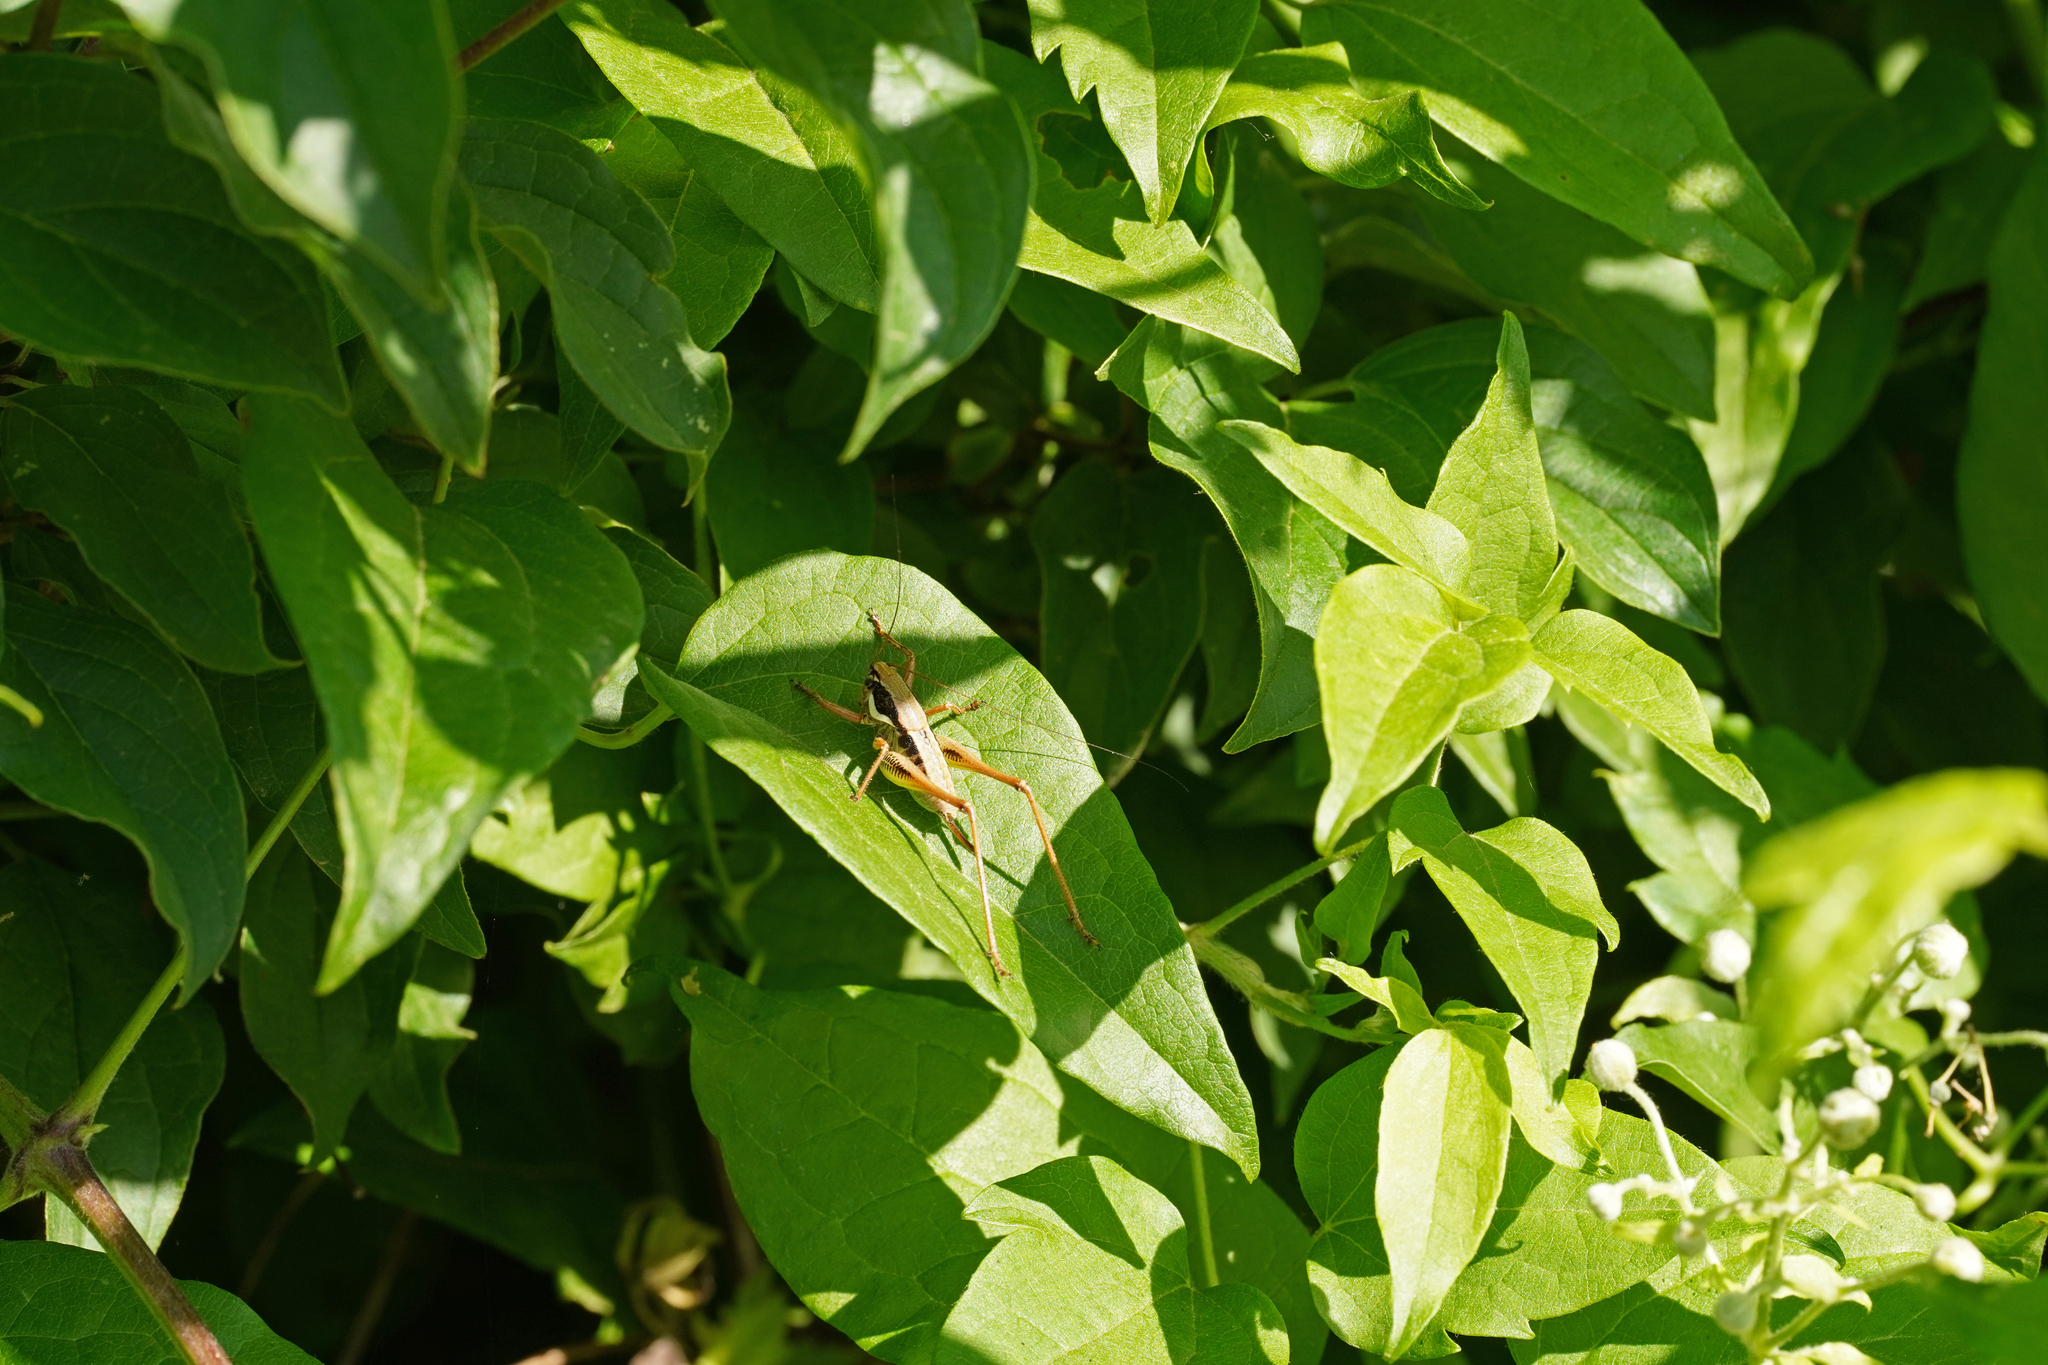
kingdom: Animalia
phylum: Arthropoda
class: Insecta
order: Orthoptera
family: Tettigoniidae
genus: Eupholidoptera
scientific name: Eupholidoptera chabrieri
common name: Chabrier's marbled bush-cricket
